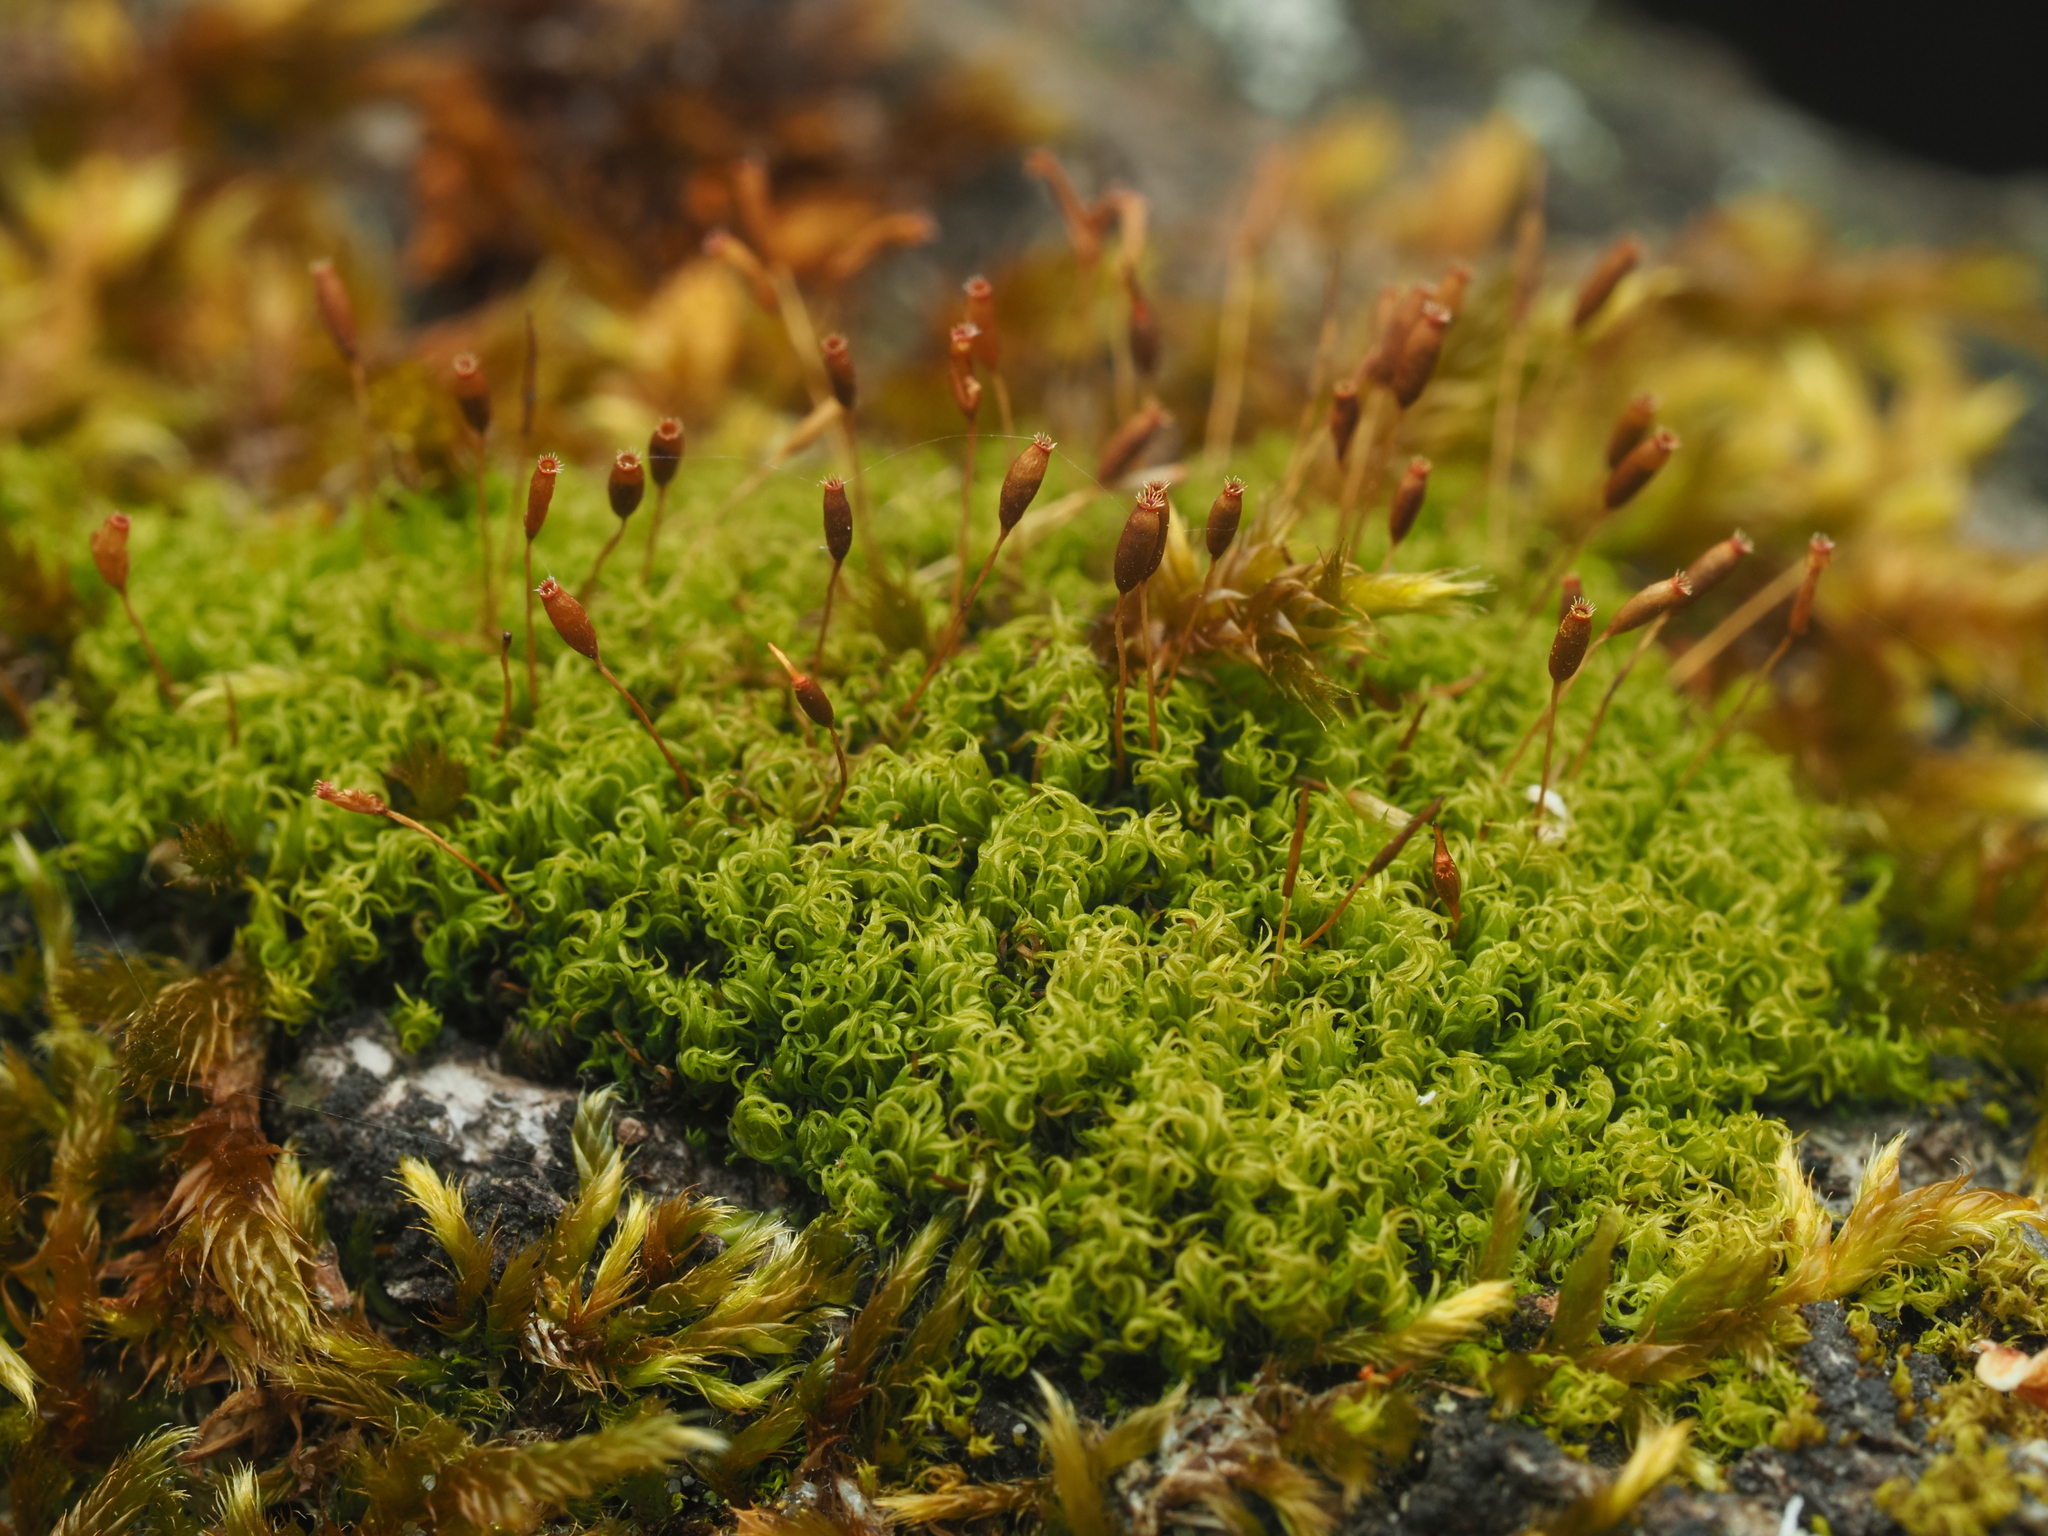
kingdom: Plantae
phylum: Bryophyta
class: Bryopsida
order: Dicranales
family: Rhabdoweisiaceae
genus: Dicranoweisia
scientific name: Dicranoweisia cirrata
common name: Common pincushion
